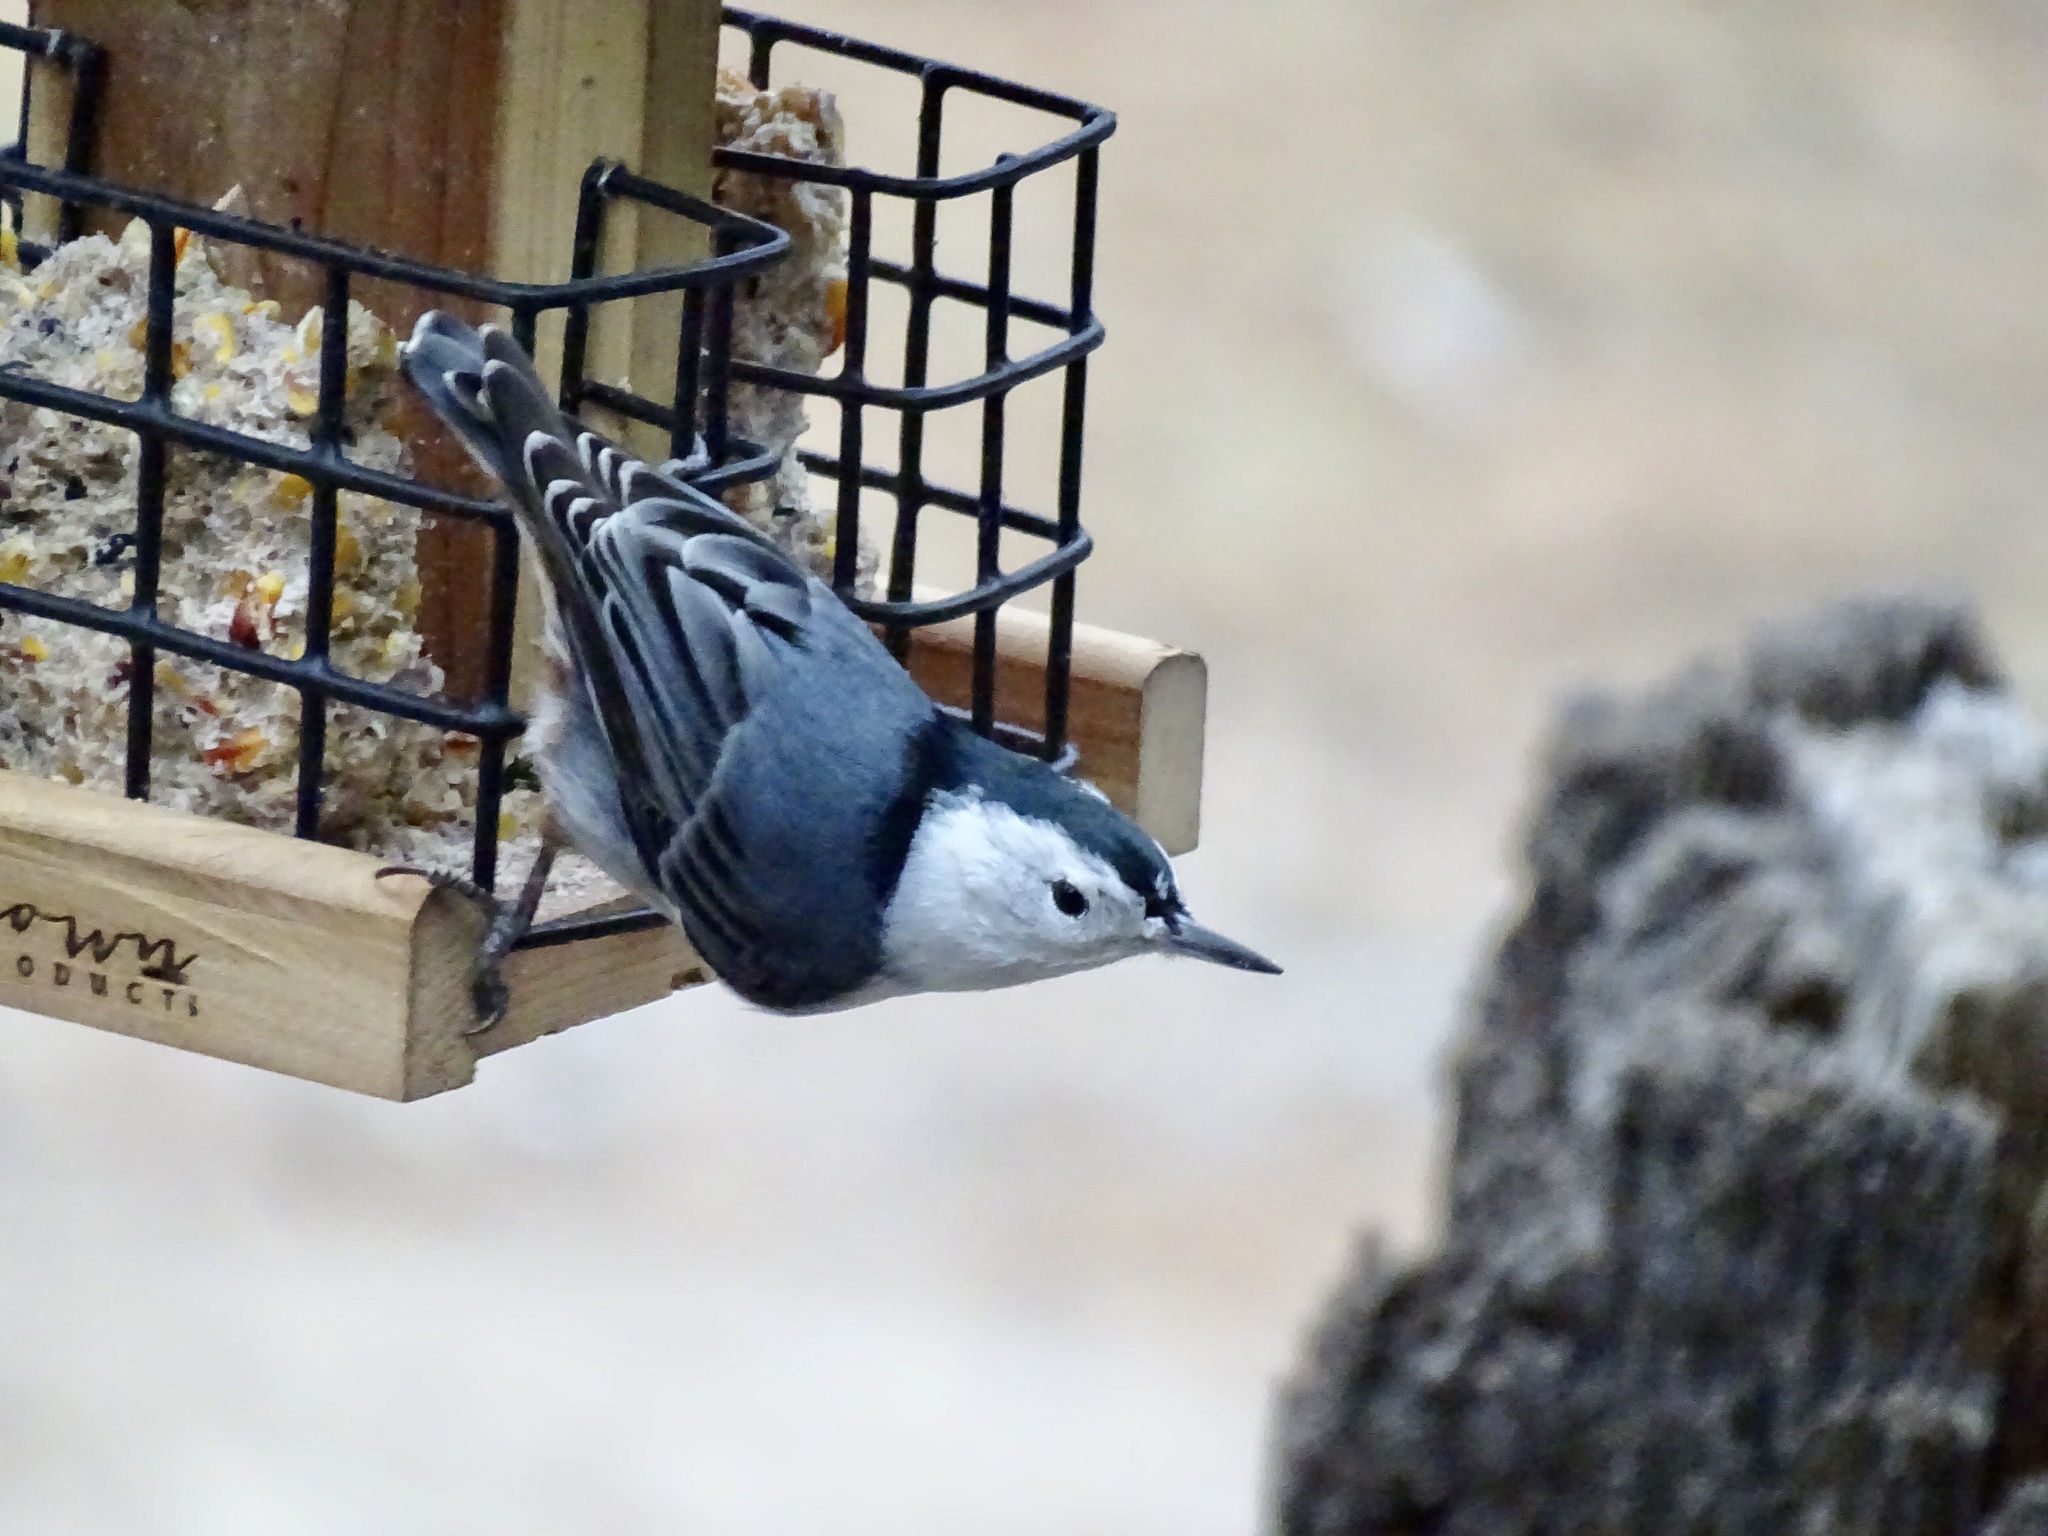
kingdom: Animalia
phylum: Chordata
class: Aves
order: Passeriformes
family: Sittidae
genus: Sitta
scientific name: Sitta carolinensis
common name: White-breasted nuthatch
